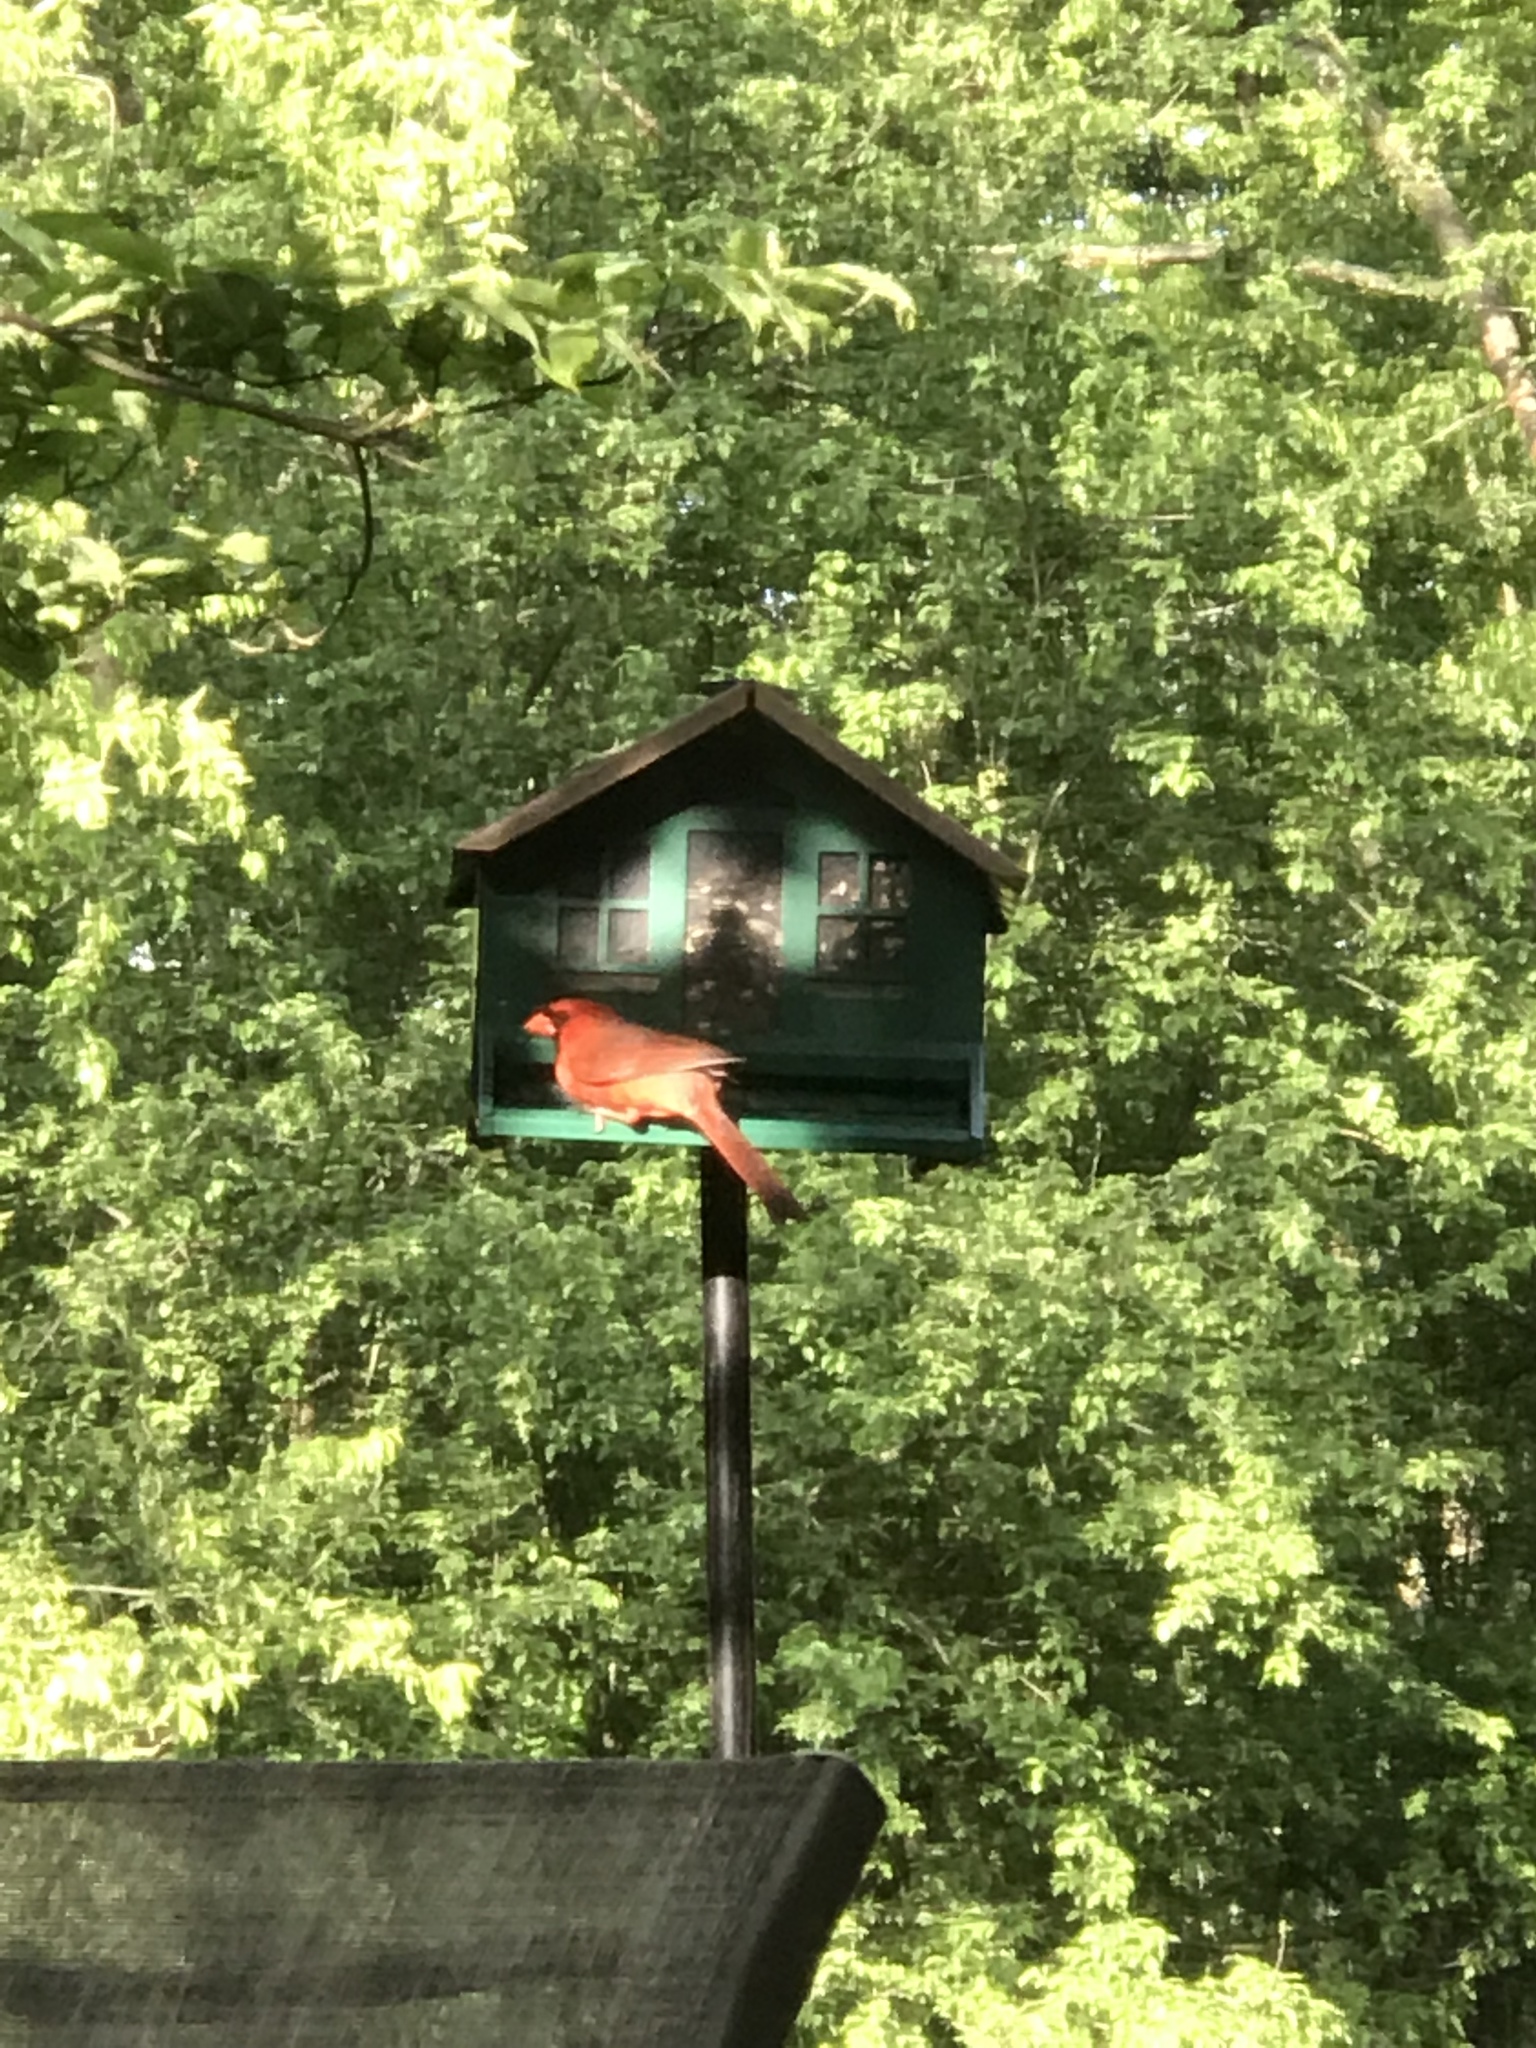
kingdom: Animalia
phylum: Chordata
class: Aves
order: Passeriformes
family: Cardinalidae
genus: Cardinalis
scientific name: Cardinalis cardinalis
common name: Northern cardinal
